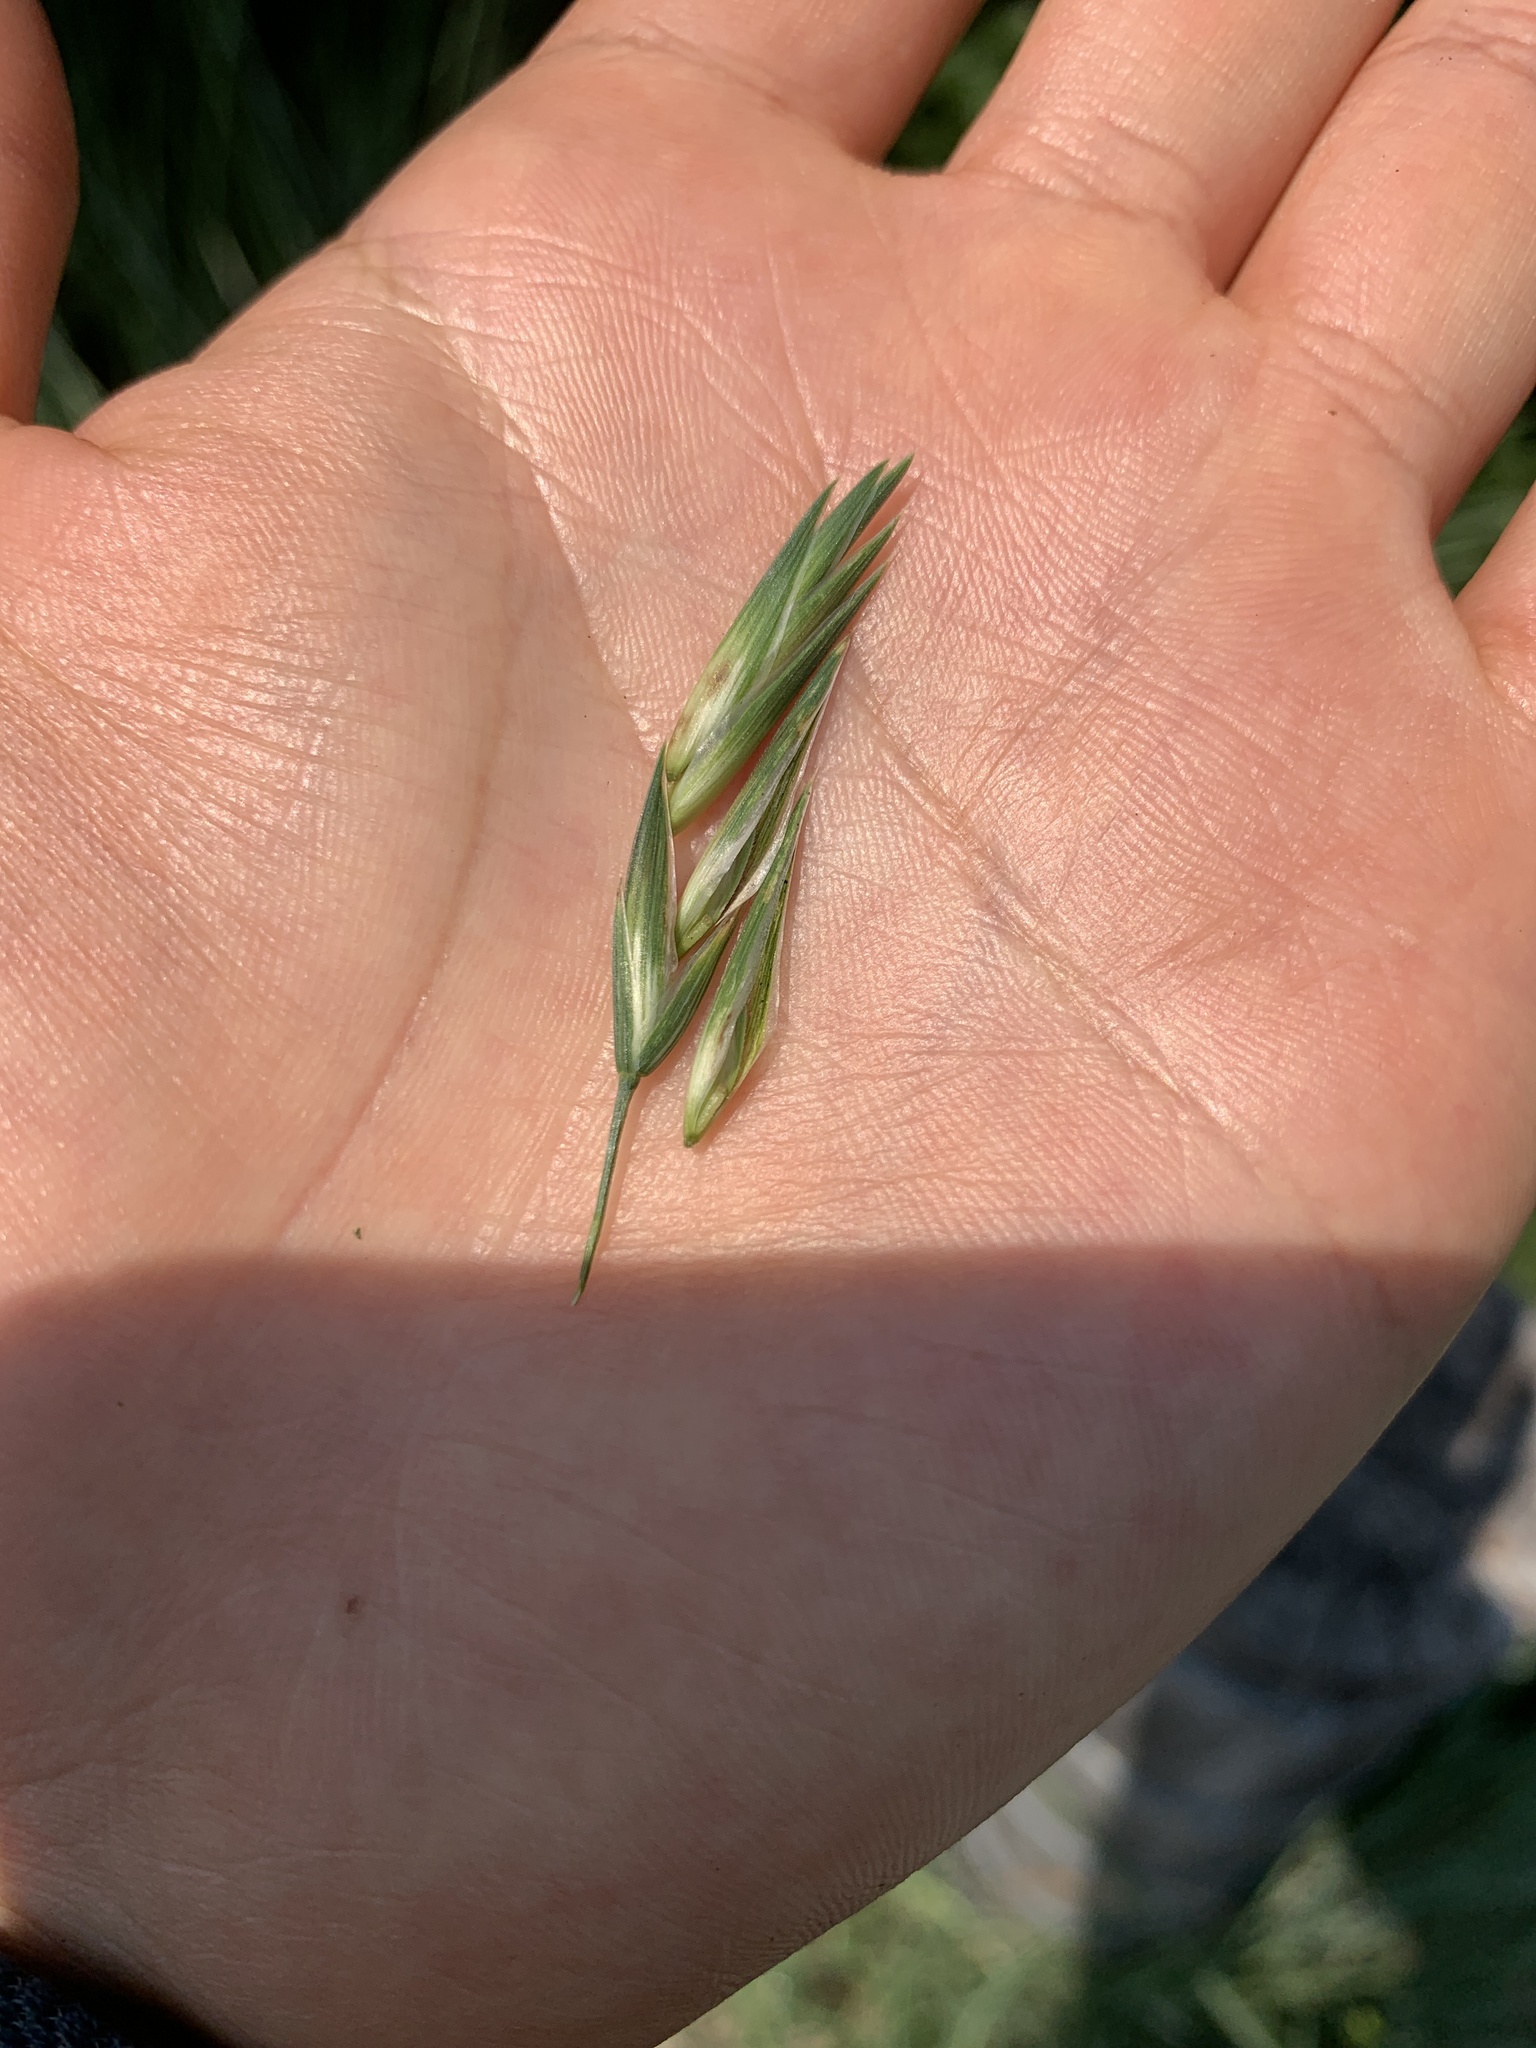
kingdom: Plantae
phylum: Tracheophyta
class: Liliopsida
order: Poales
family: Poaceae
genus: Bromus
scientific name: Bromus catharticus
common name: Rescuegrass
